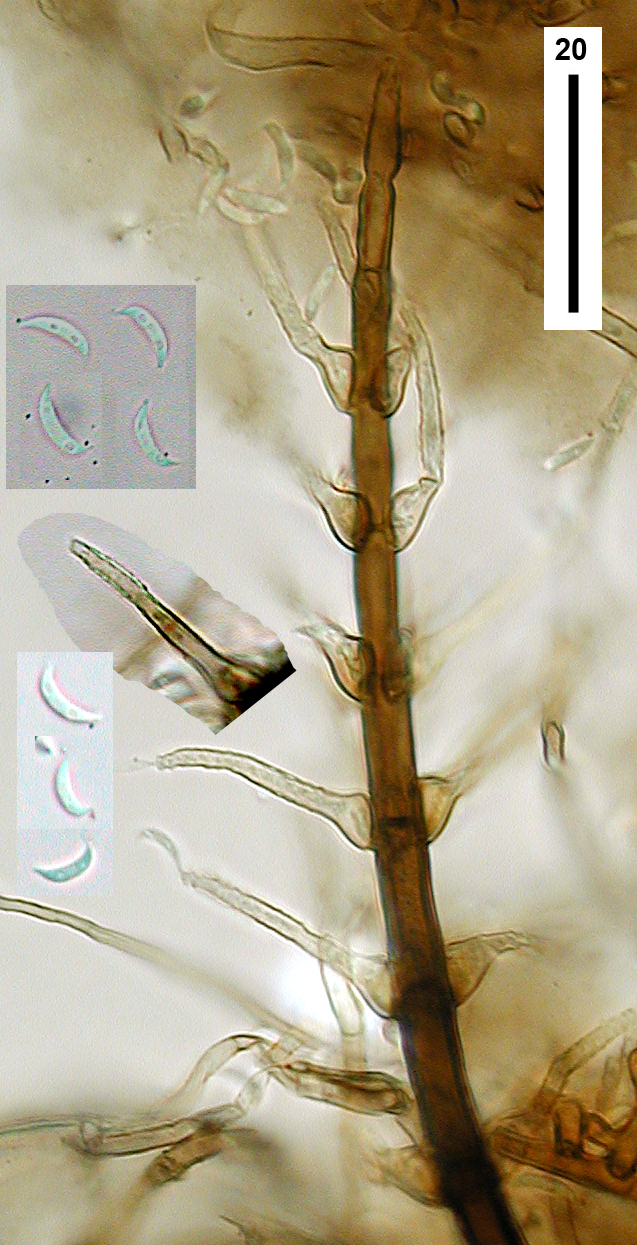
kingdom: Fungi
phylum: Ascomycota
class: Sordariomycetes
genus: Selenosporella
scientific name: Selenosporella curvispora
